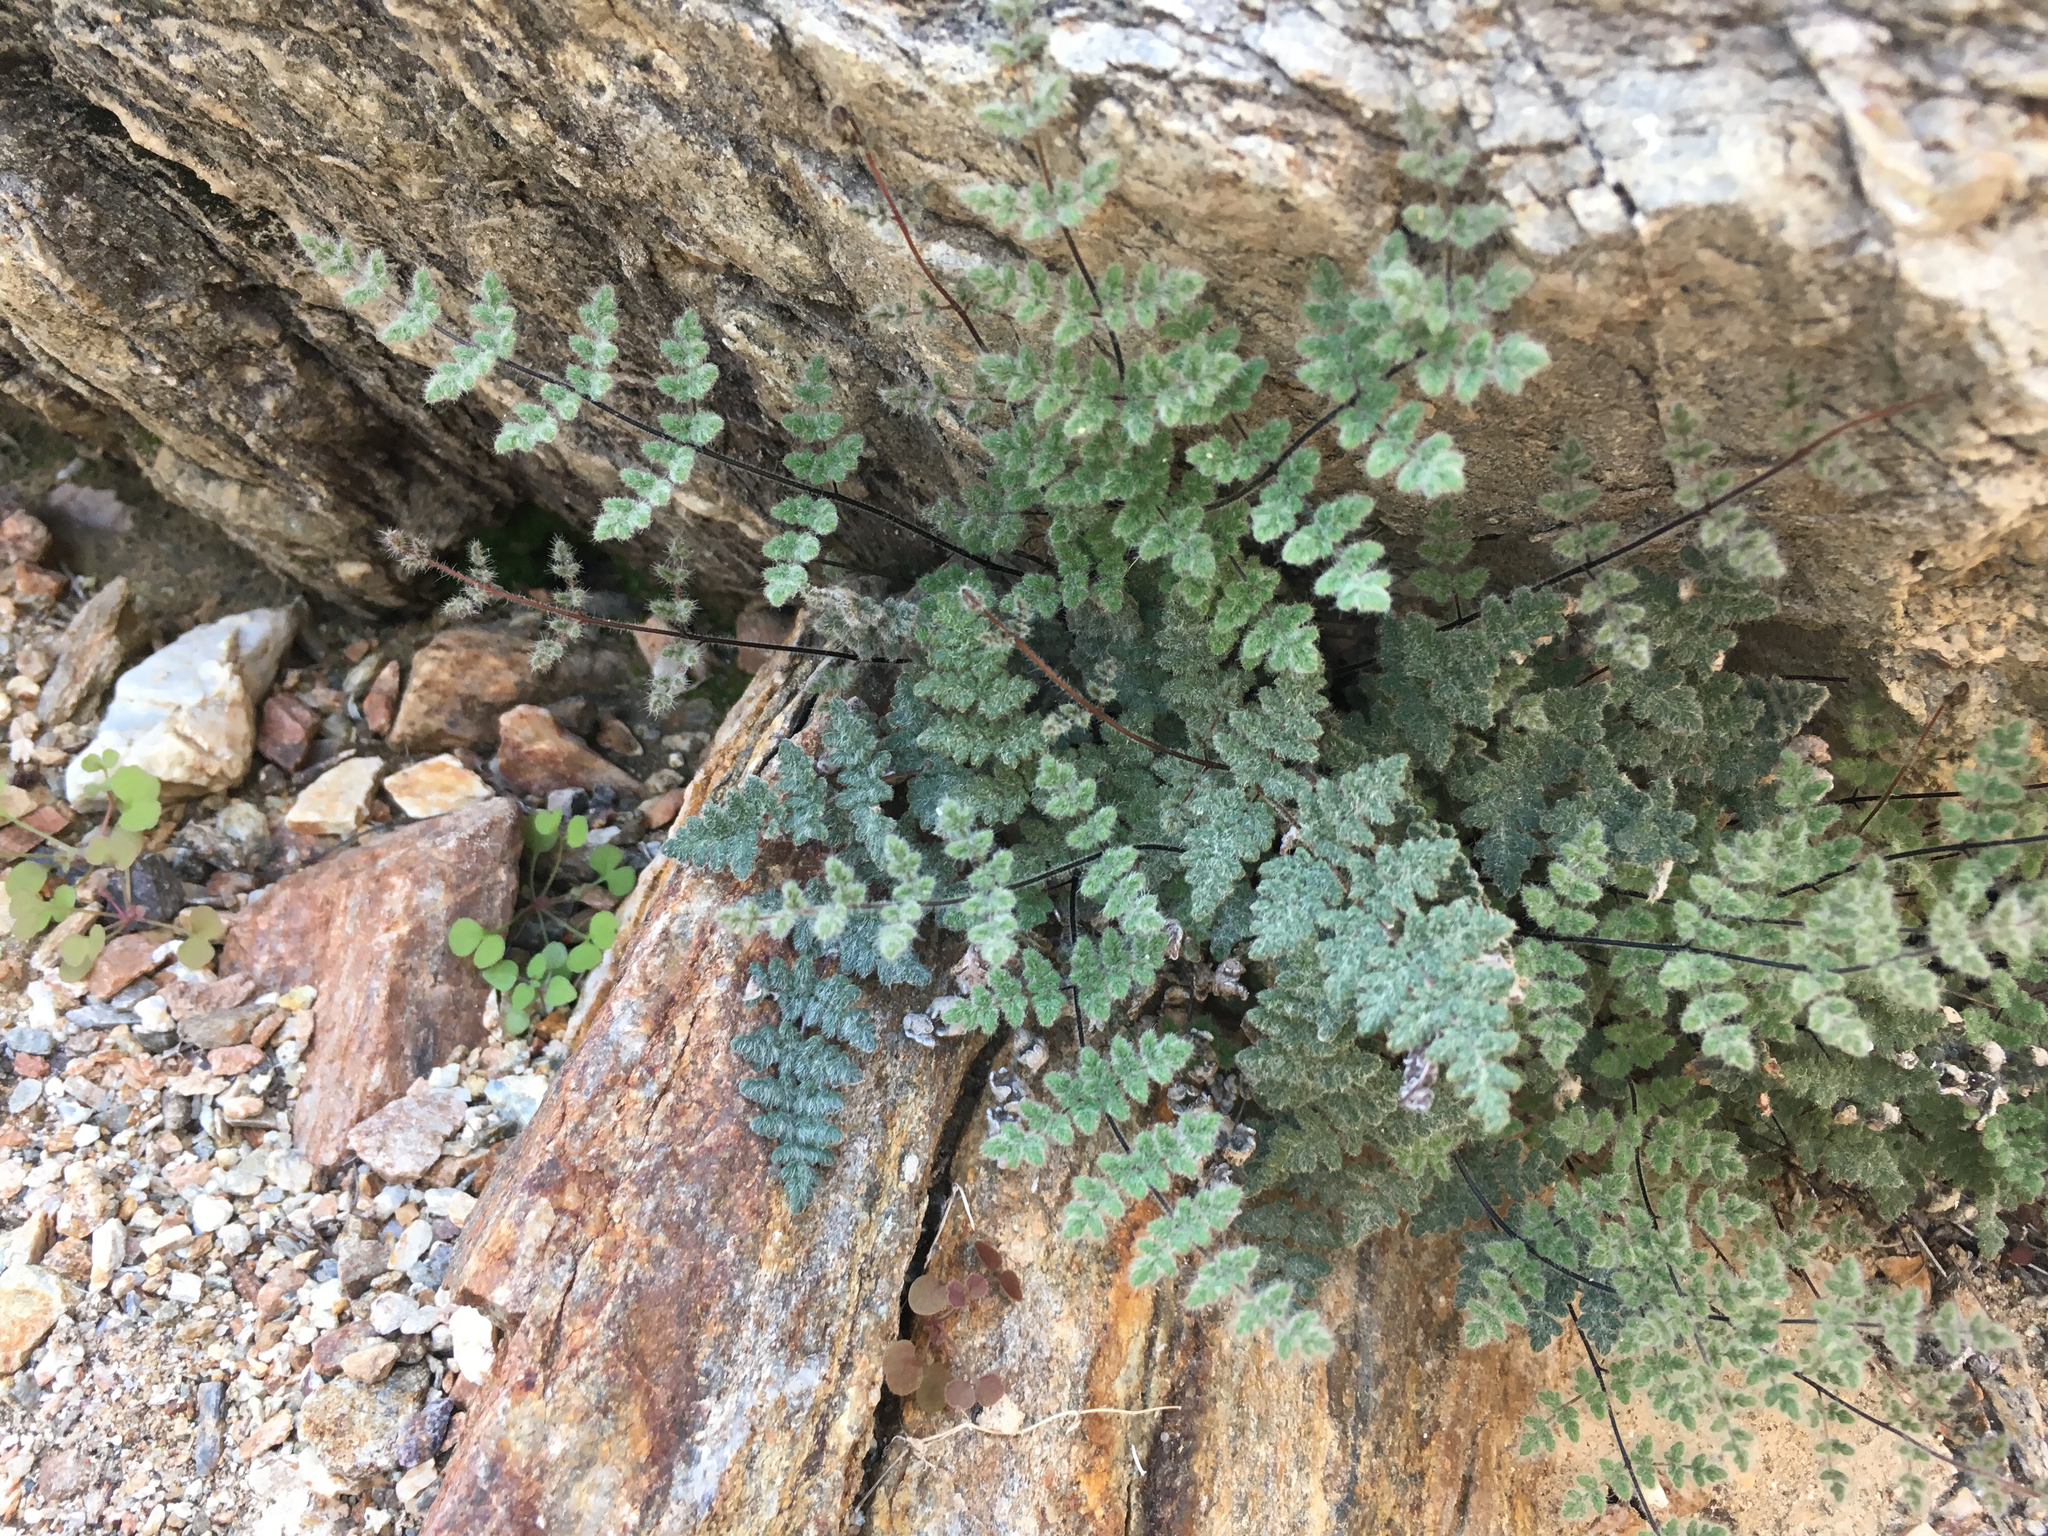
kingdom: Plantae
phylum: Tracheophyta
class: Polypodiopsida
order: Polypodiales
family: Pteridaceae
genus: Myriopteris
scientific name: Myriopteris parryi
